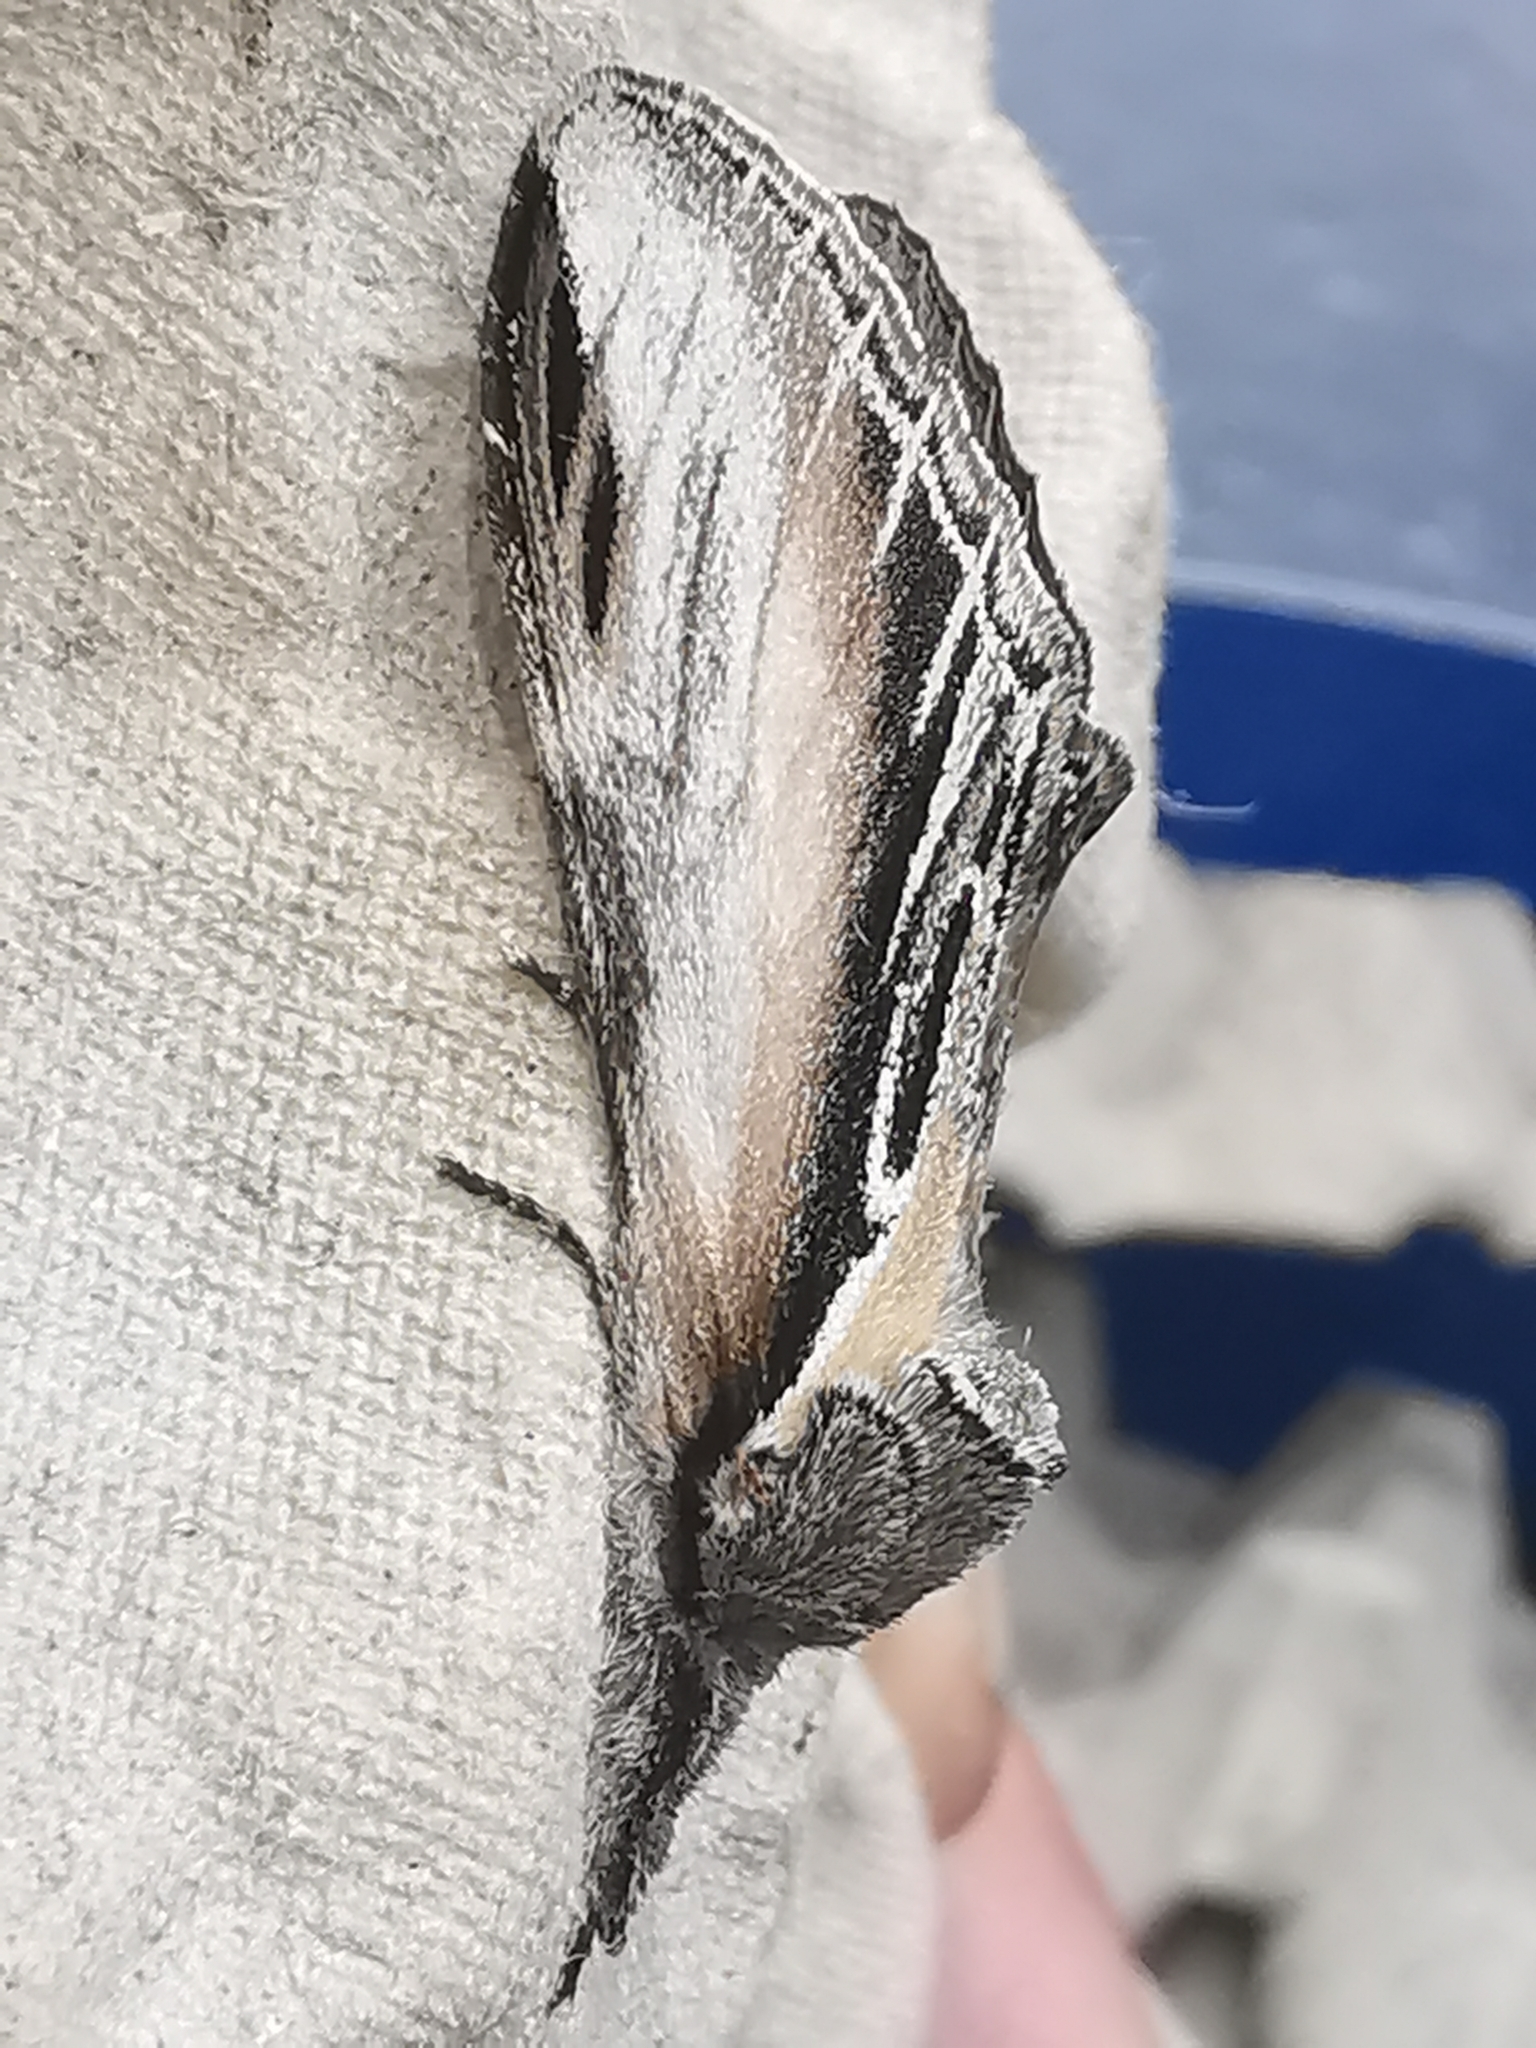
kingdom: Animalia
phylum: Arthropoda
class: Insecta
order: Lepidoptera
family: Notodontidae
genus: Pheosia
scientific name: Pheosia tremula
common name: Swallow prominent
